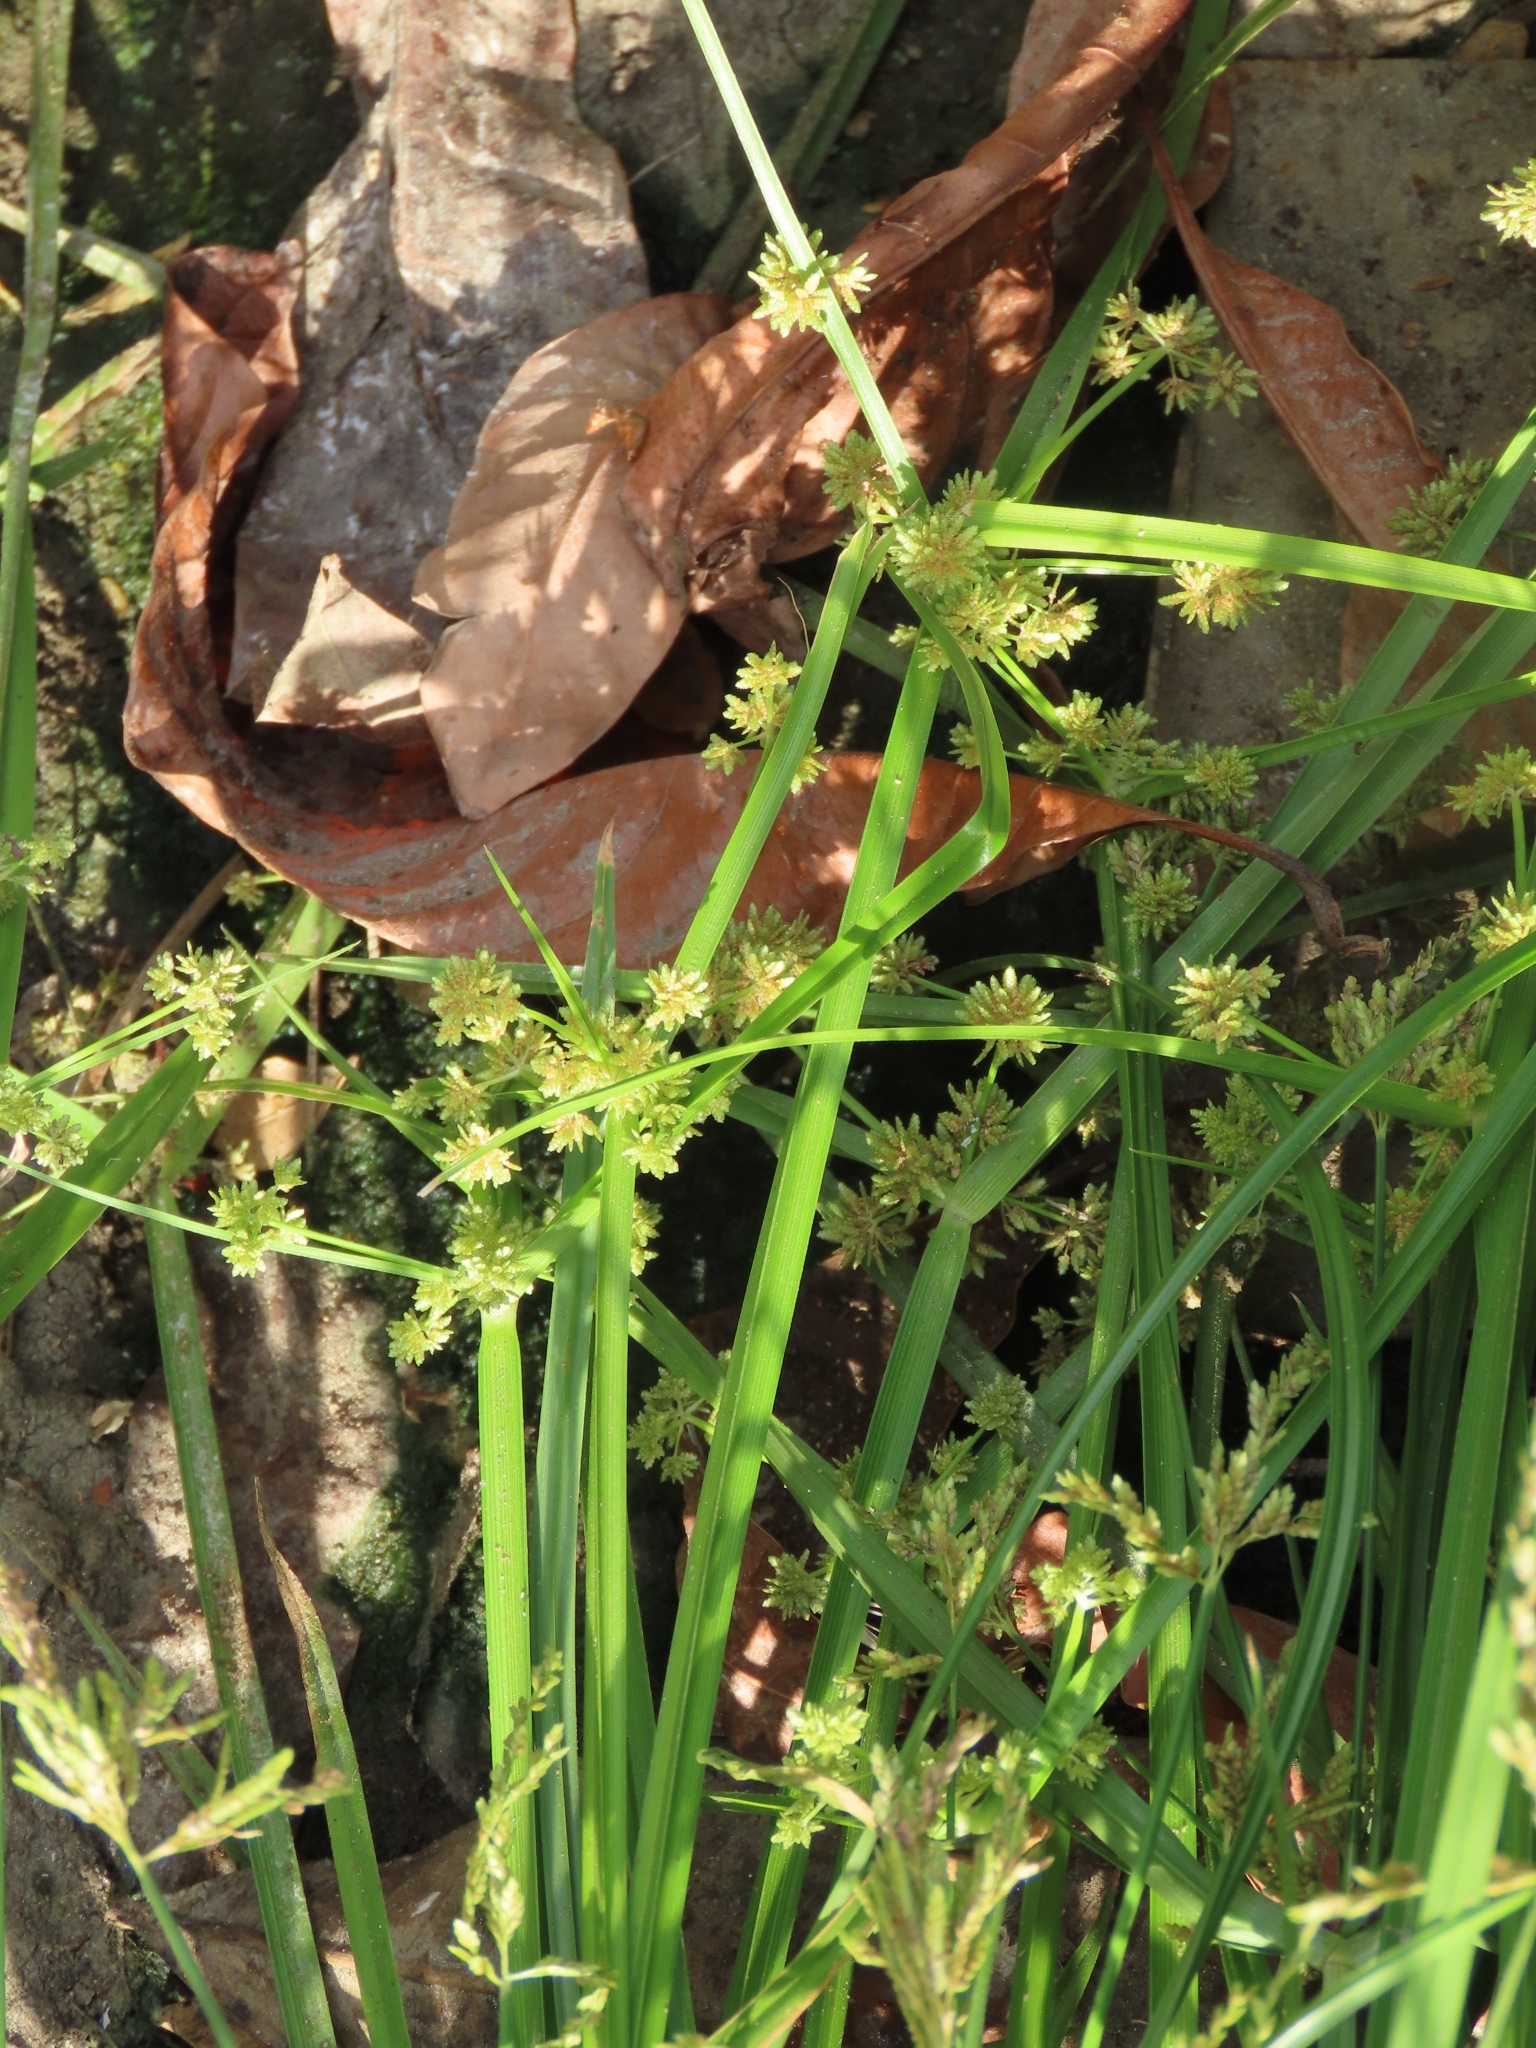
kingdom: Plantae
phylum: Tracheophyta
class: Liliopsida
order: Poales
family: Cyperaceae
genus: Cyperus
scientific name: Cyperus difformis
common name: Variable flatsedge
